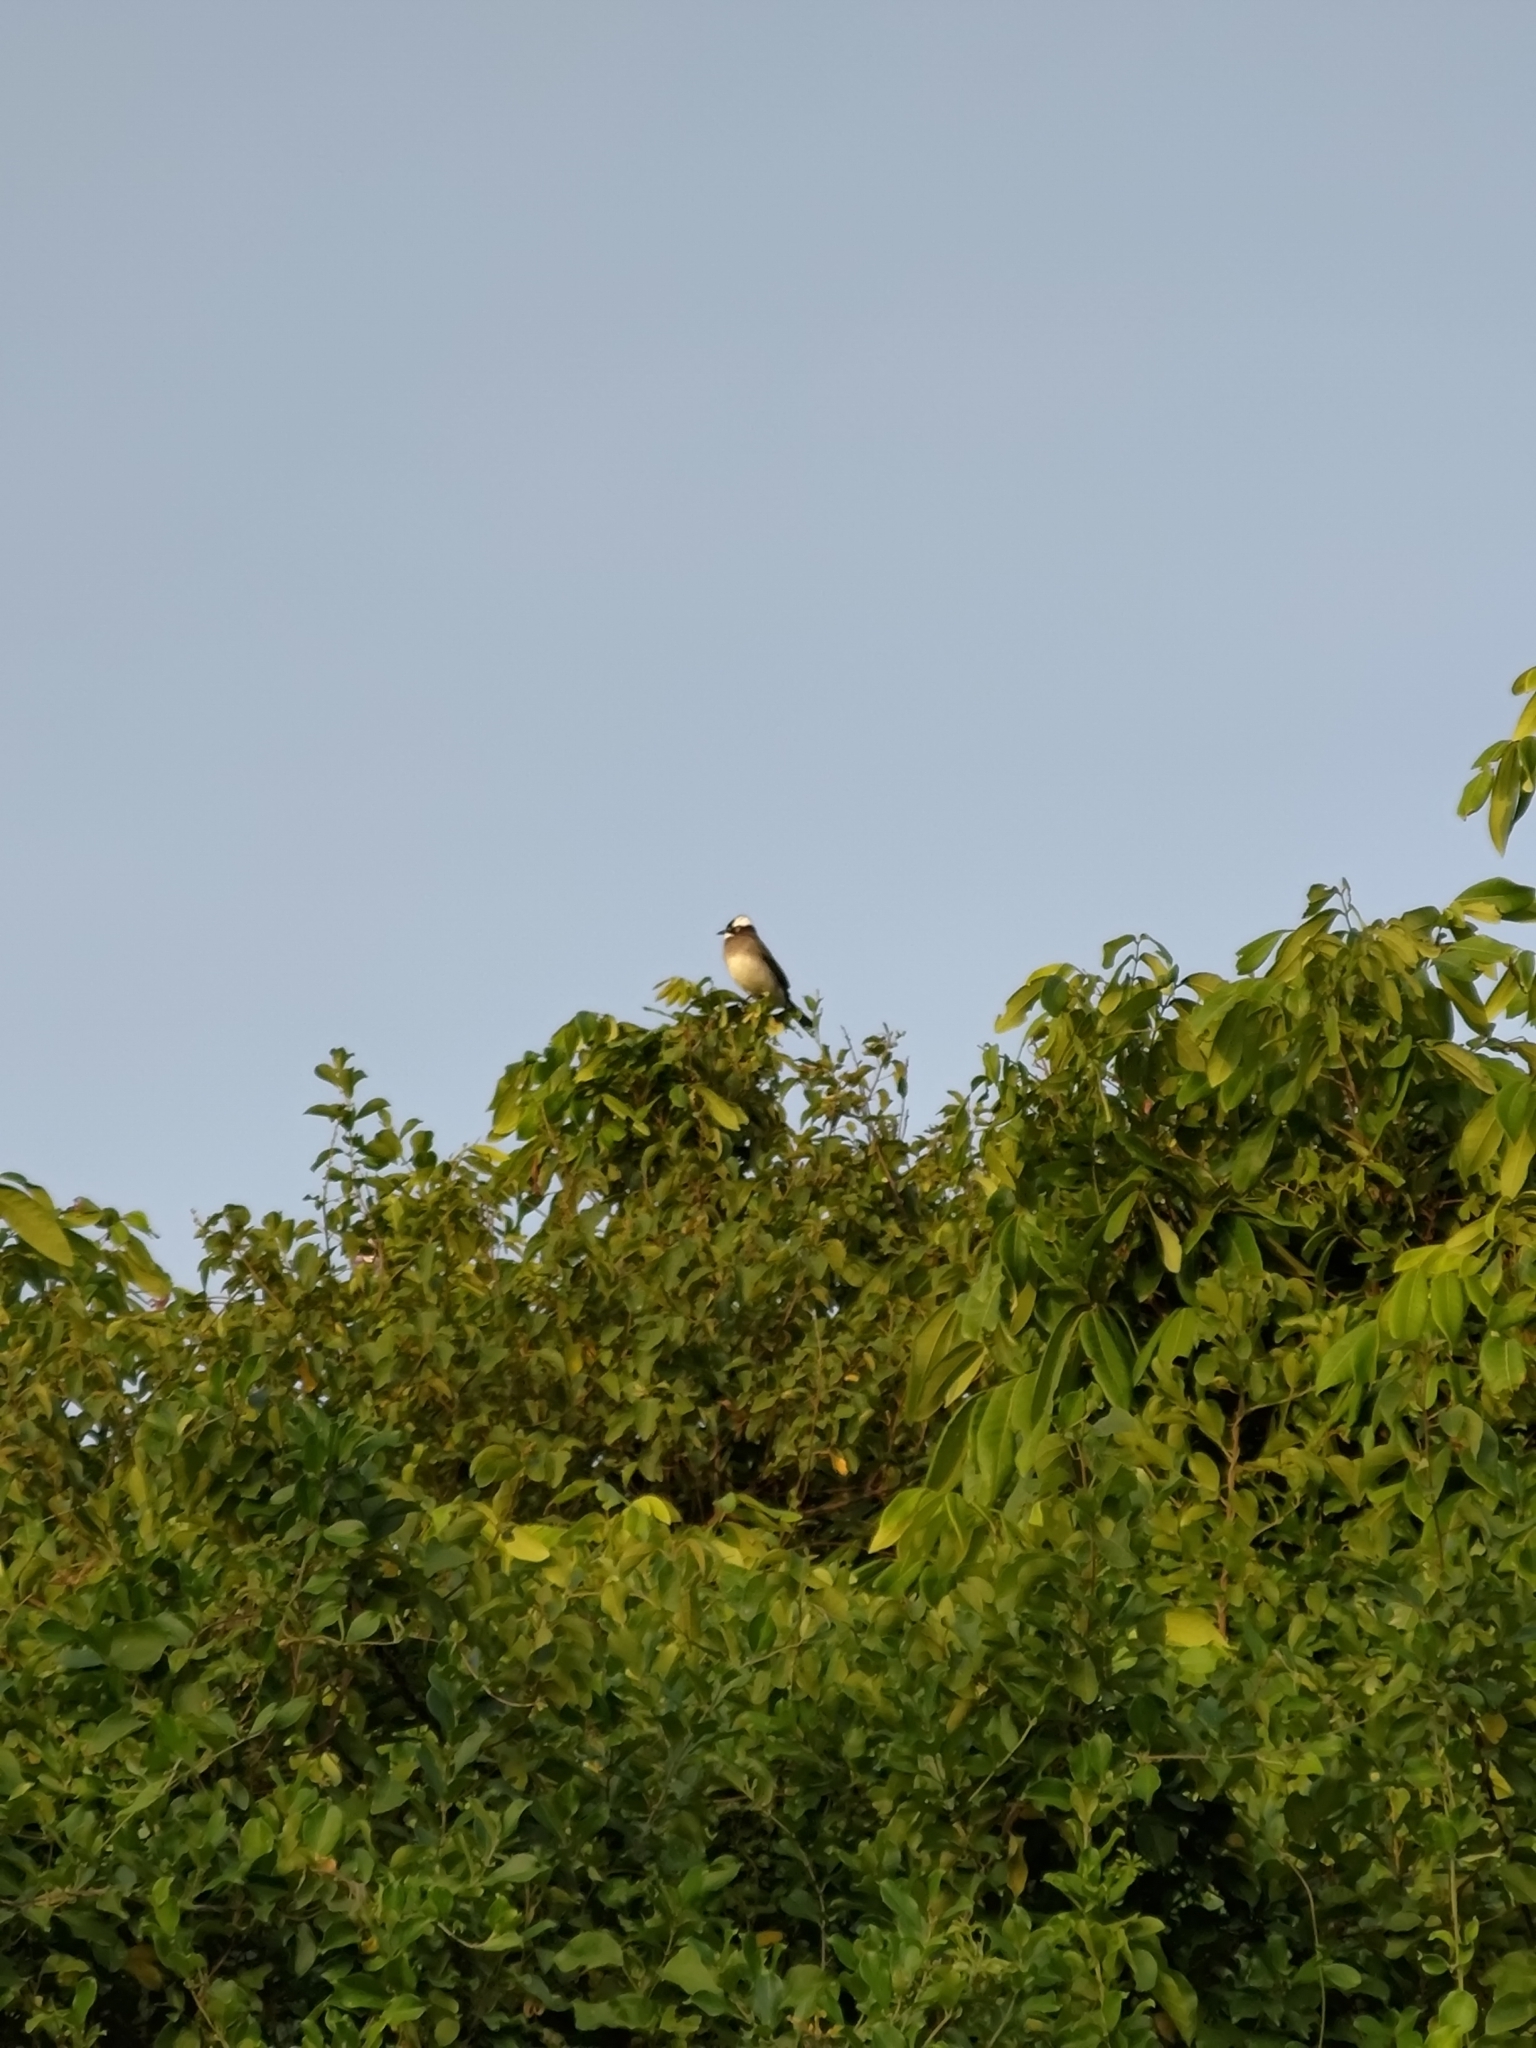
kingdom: Animalia
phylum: Chordata
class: Aves
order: Passeriformes
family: Pycnonotidae
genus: Pycnonotus
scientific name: Pycnonotus sinensis
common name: Light-vented bulbul
